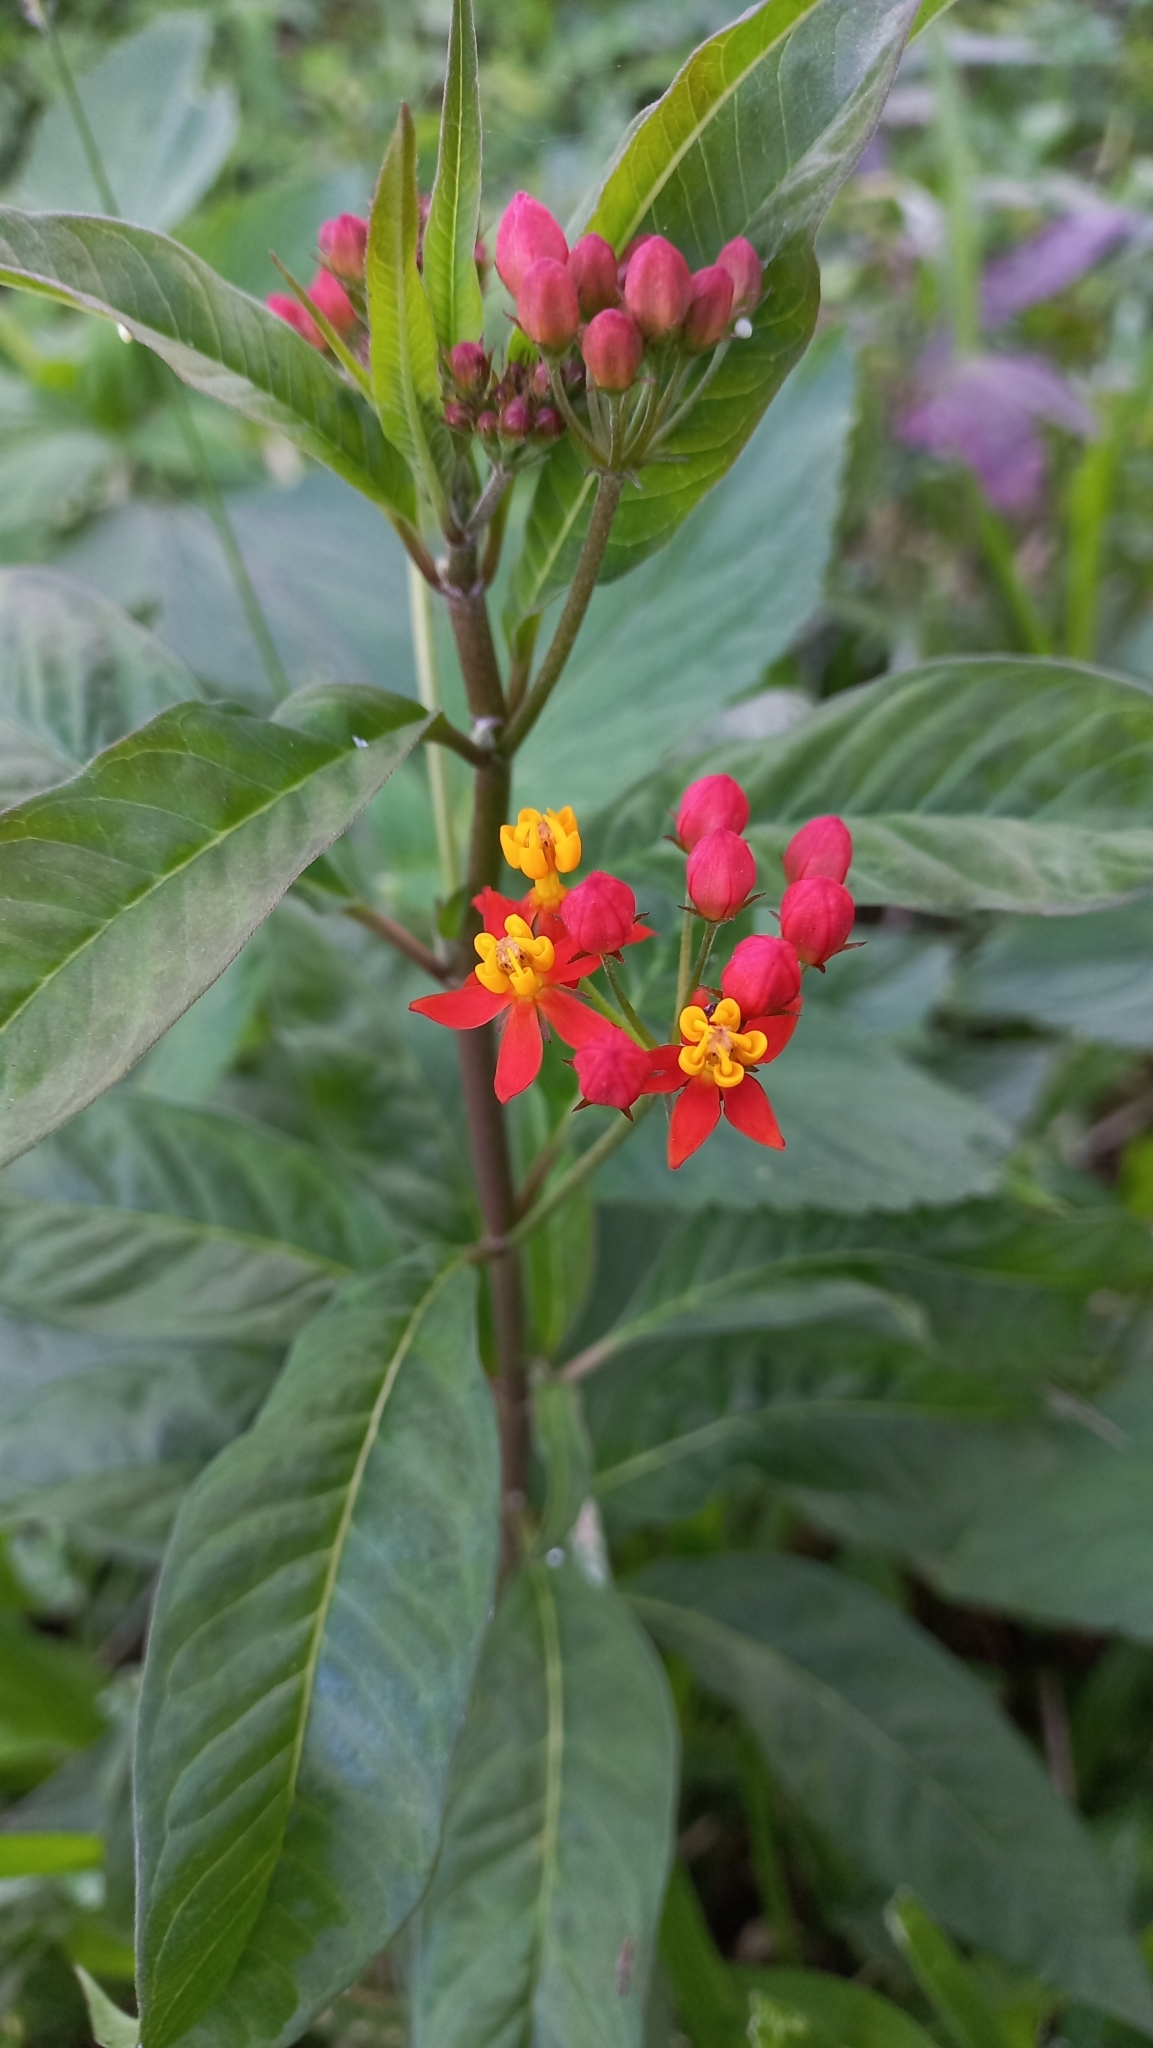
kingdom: Plantae
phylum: Tracheophyta
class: Magnoliopsida
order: Gentianales
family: Apocynaceae
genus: Asclepias
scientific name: Asclepias curassavica
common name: Bloodflower
